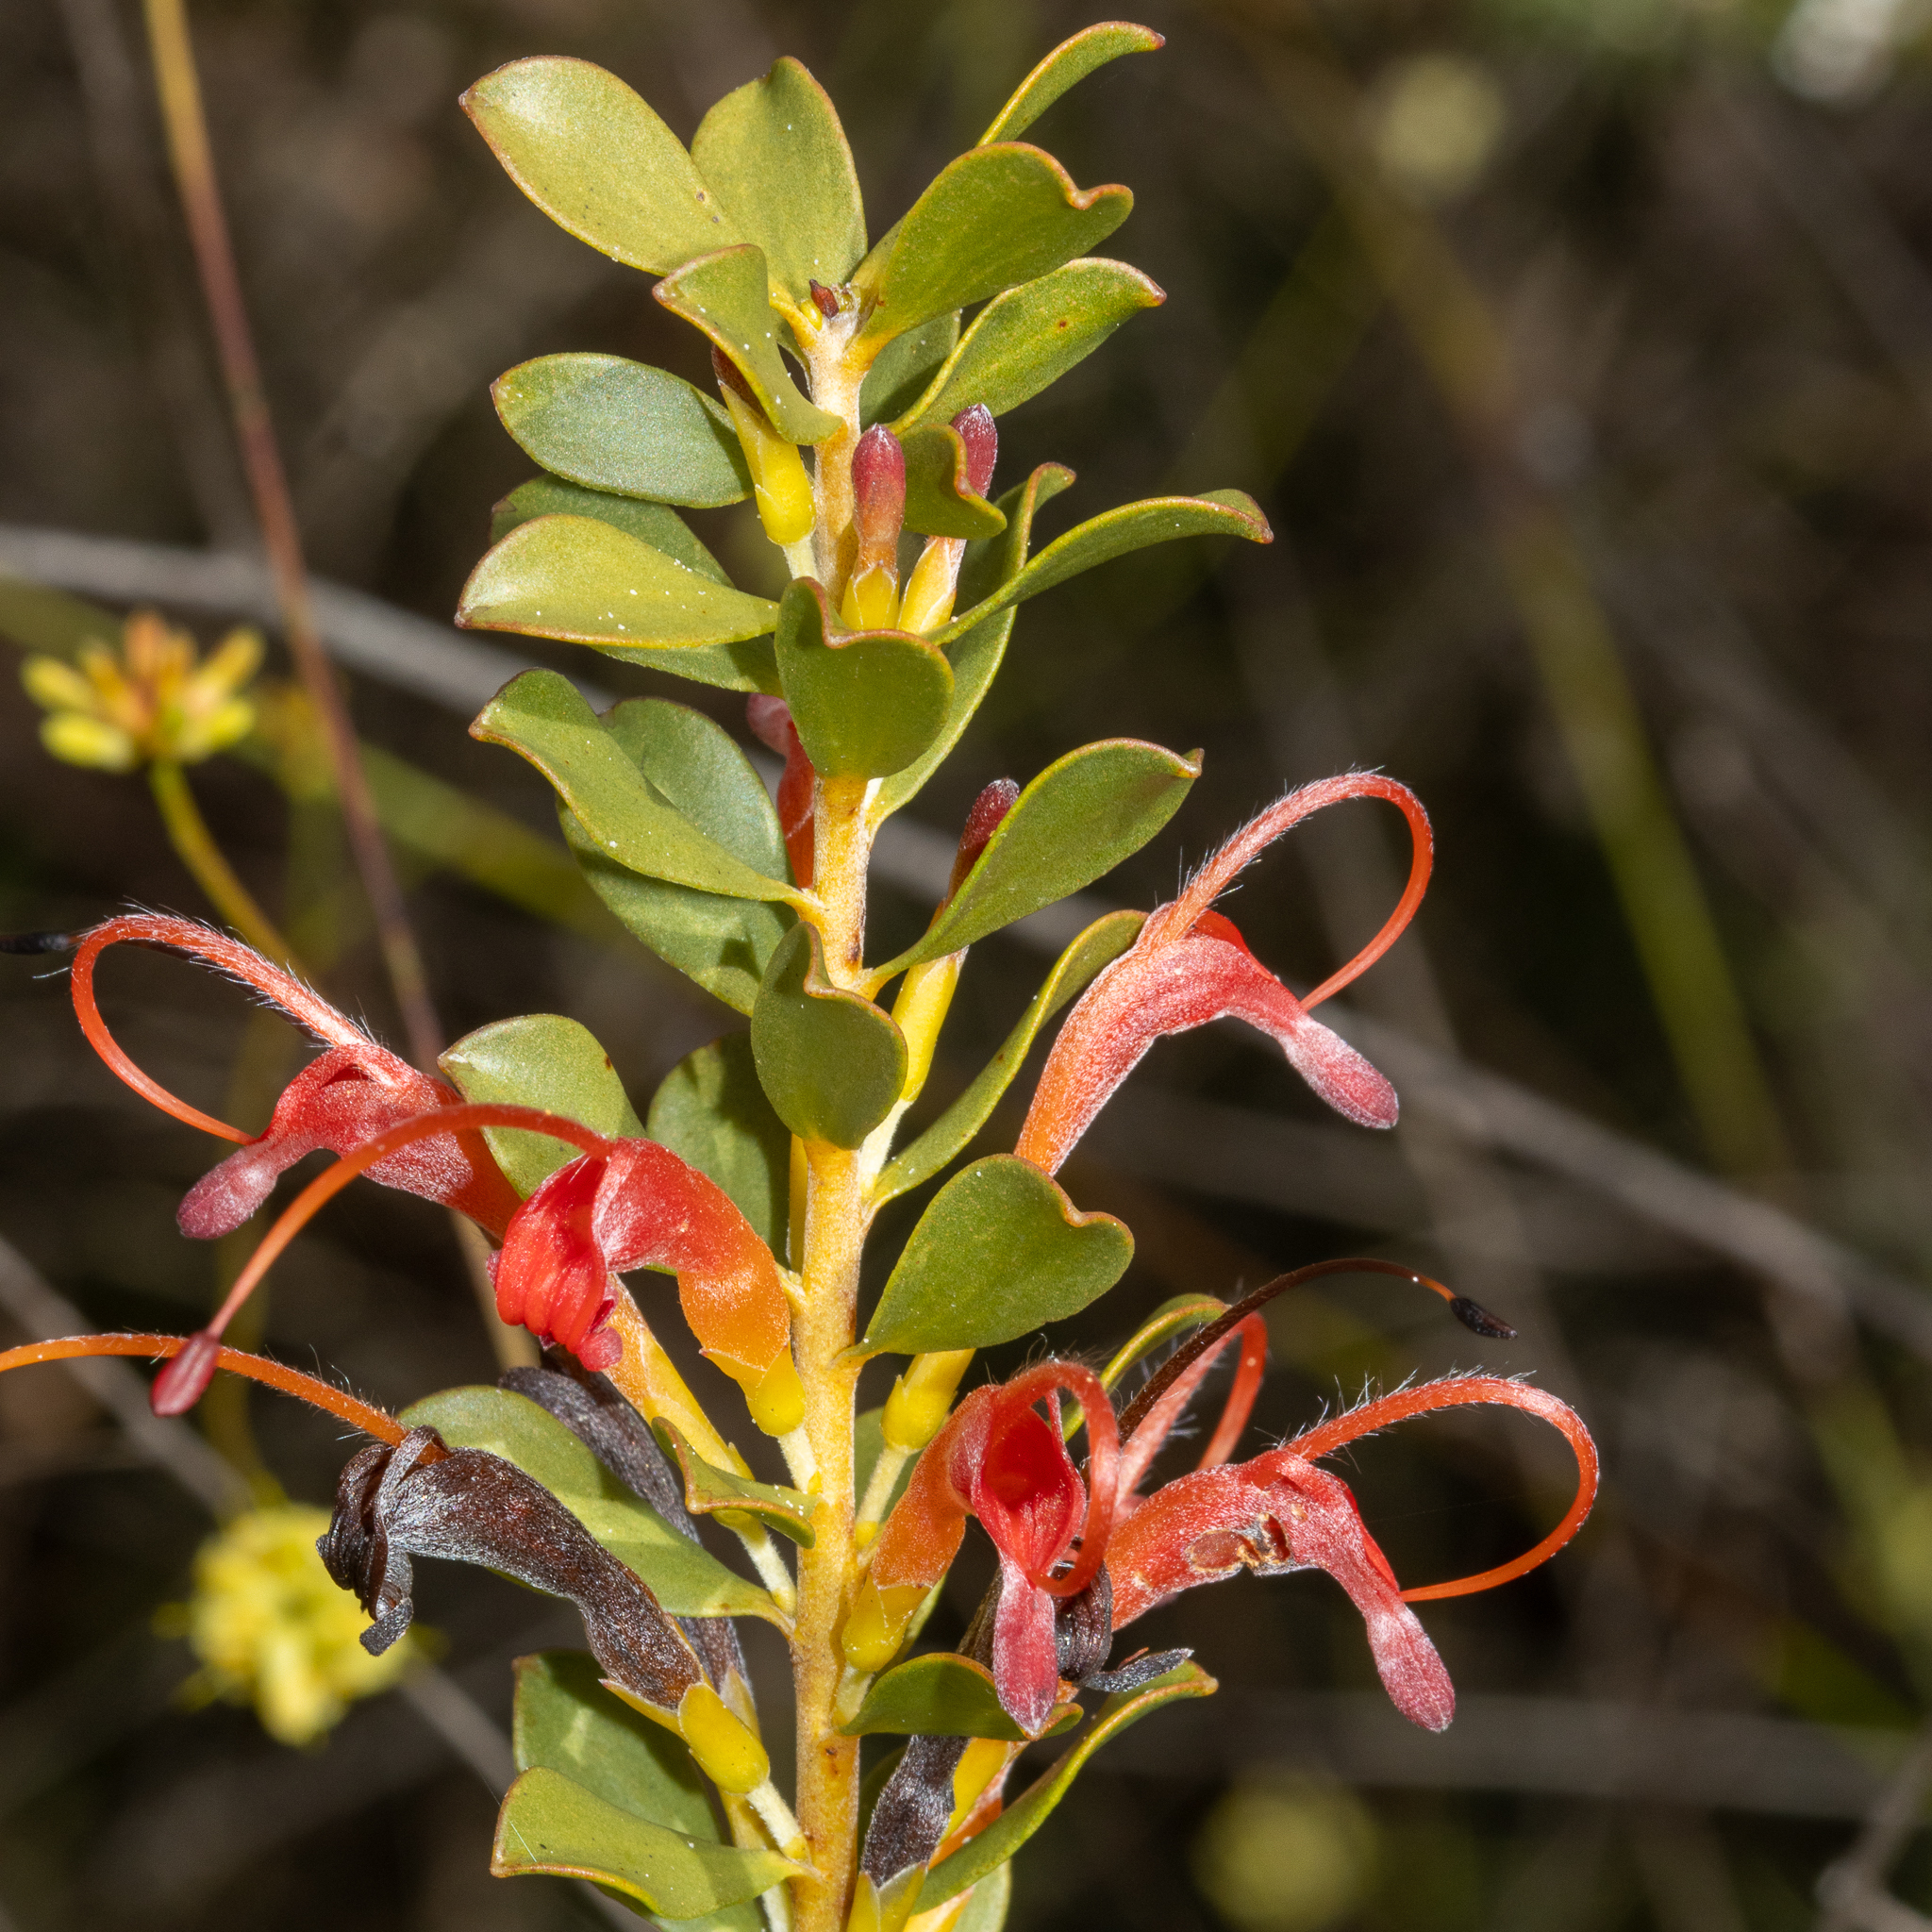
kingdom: Plantae
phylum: Tracheophyta
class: Magnoliopsida
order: Proteales
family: Proteaceae
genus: Adenanthos
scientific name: Adenanthos obovatus
